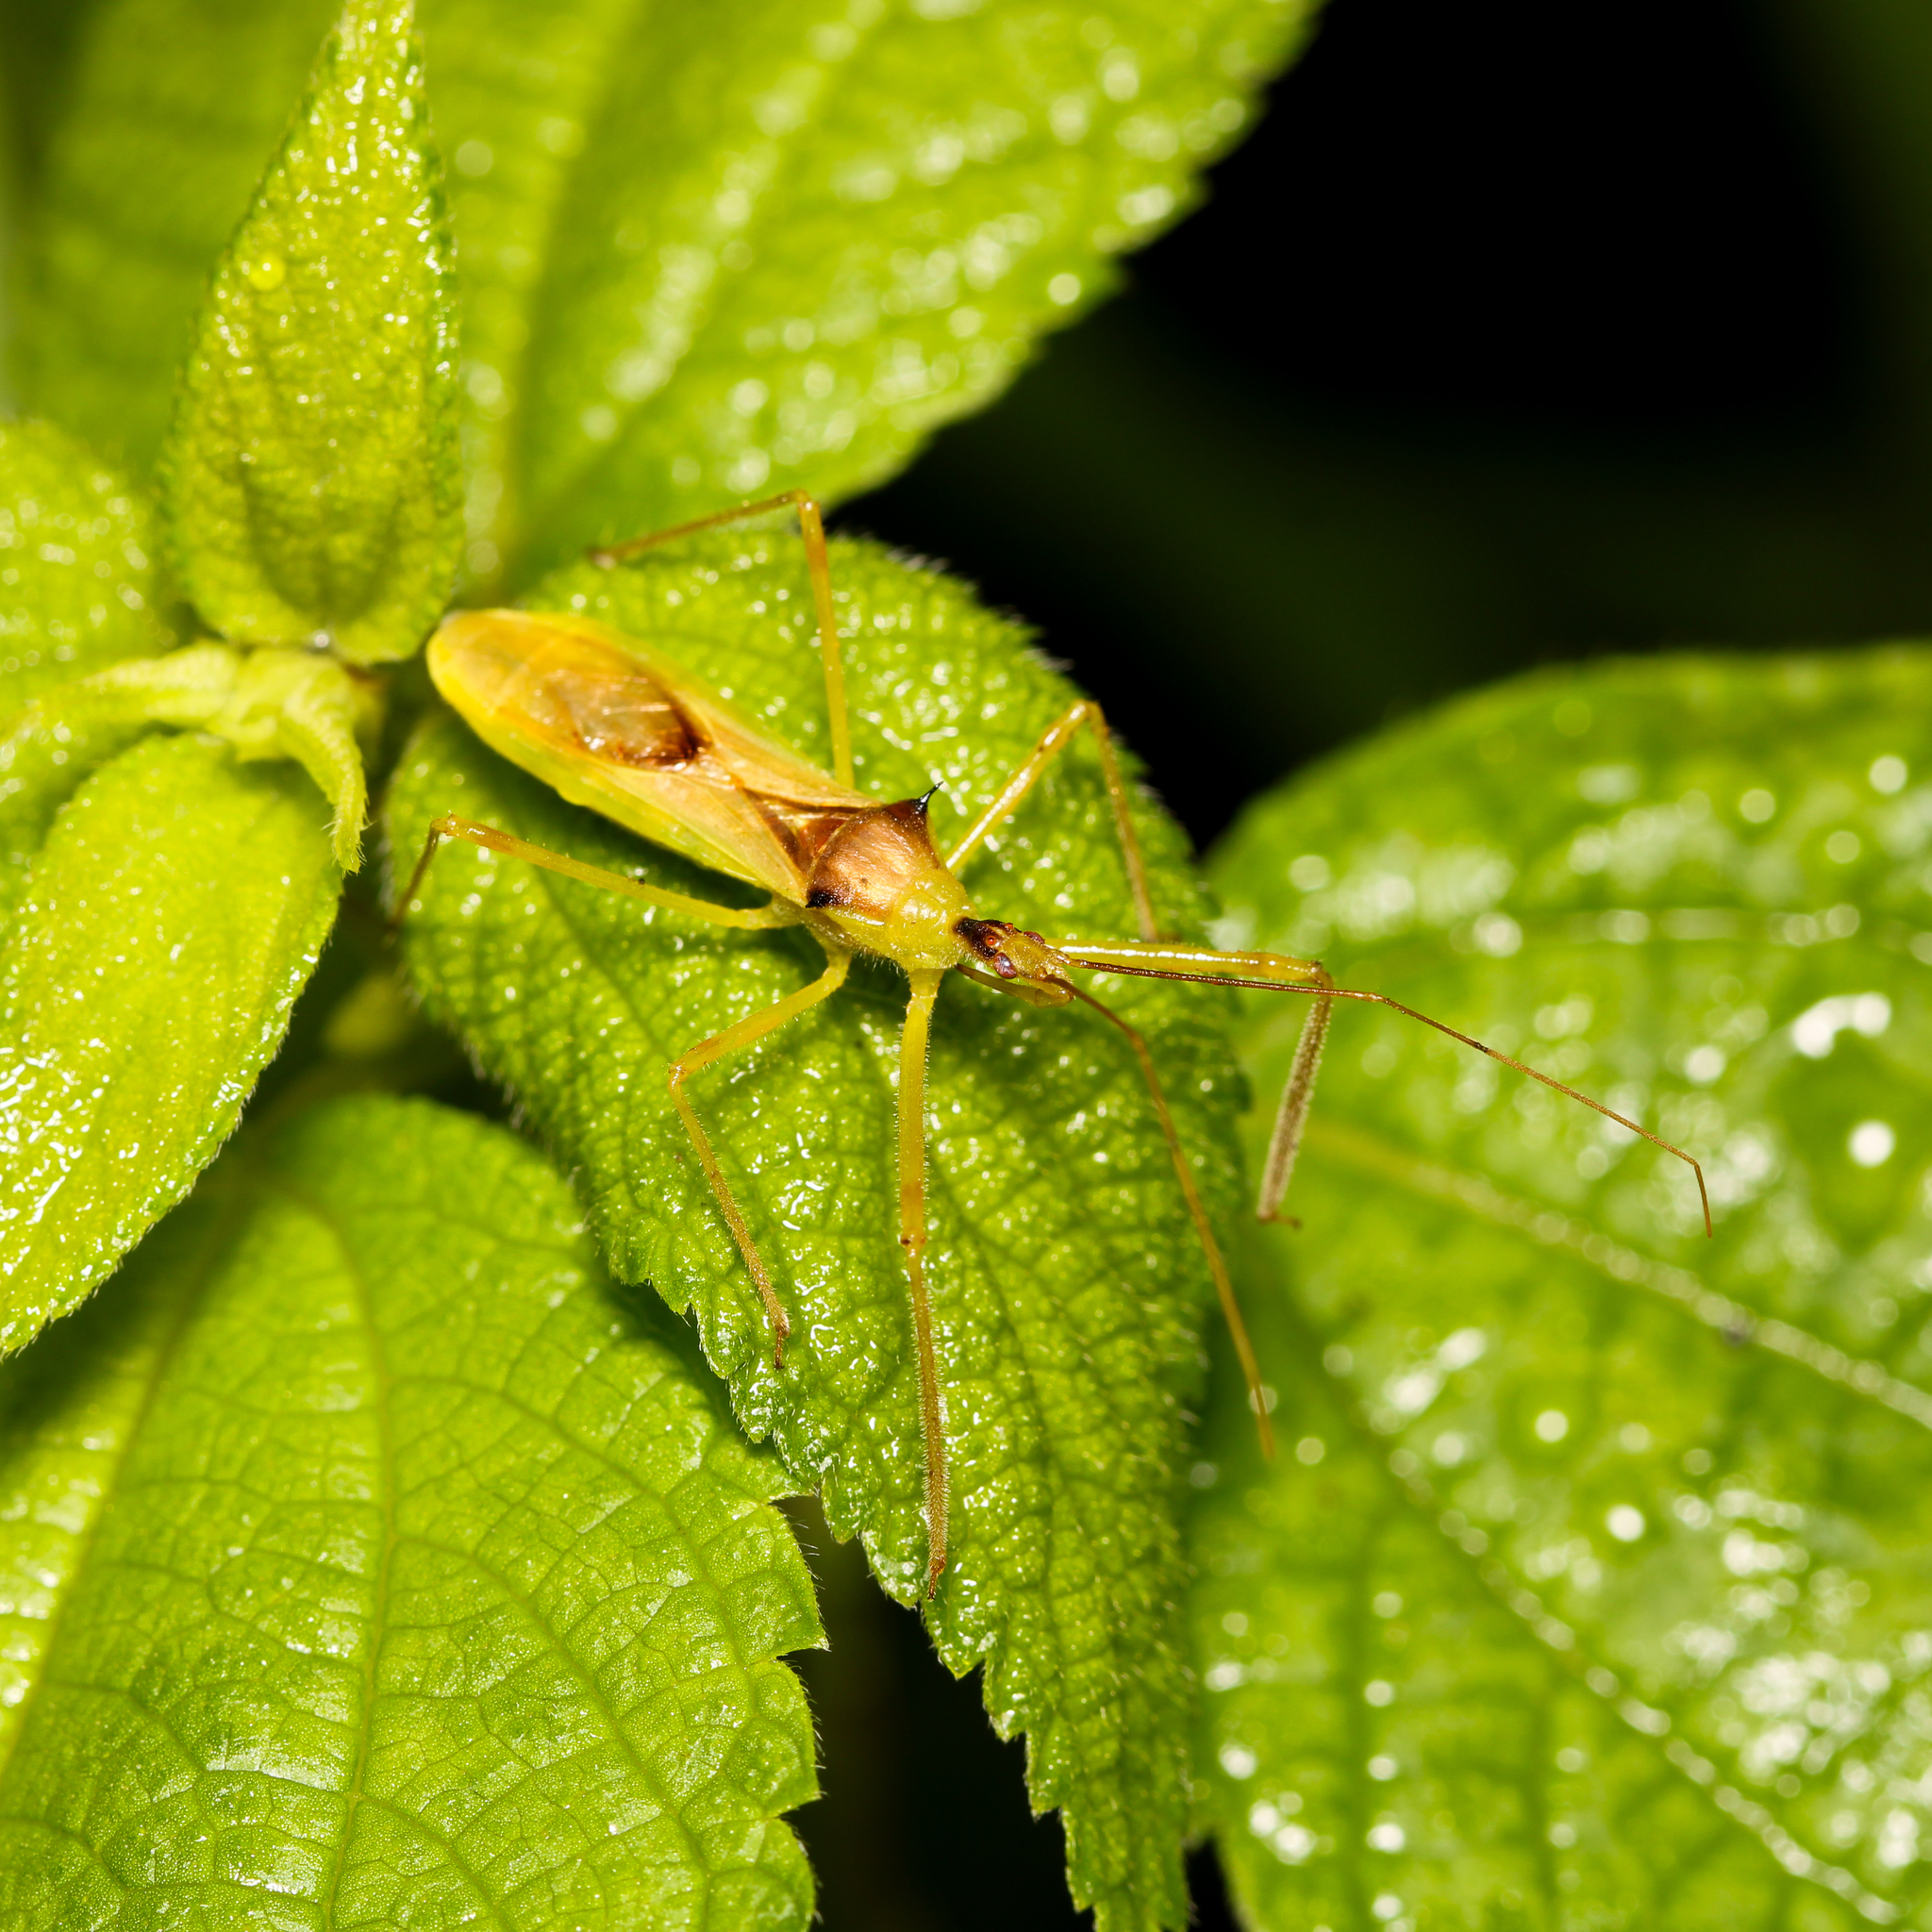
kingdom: Animalia
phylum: Arthropoda
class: Insecta
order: Hemiptera
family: Reduviidae
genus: Zelus
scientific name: Zelus luridus
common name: Pale green assassin bug
